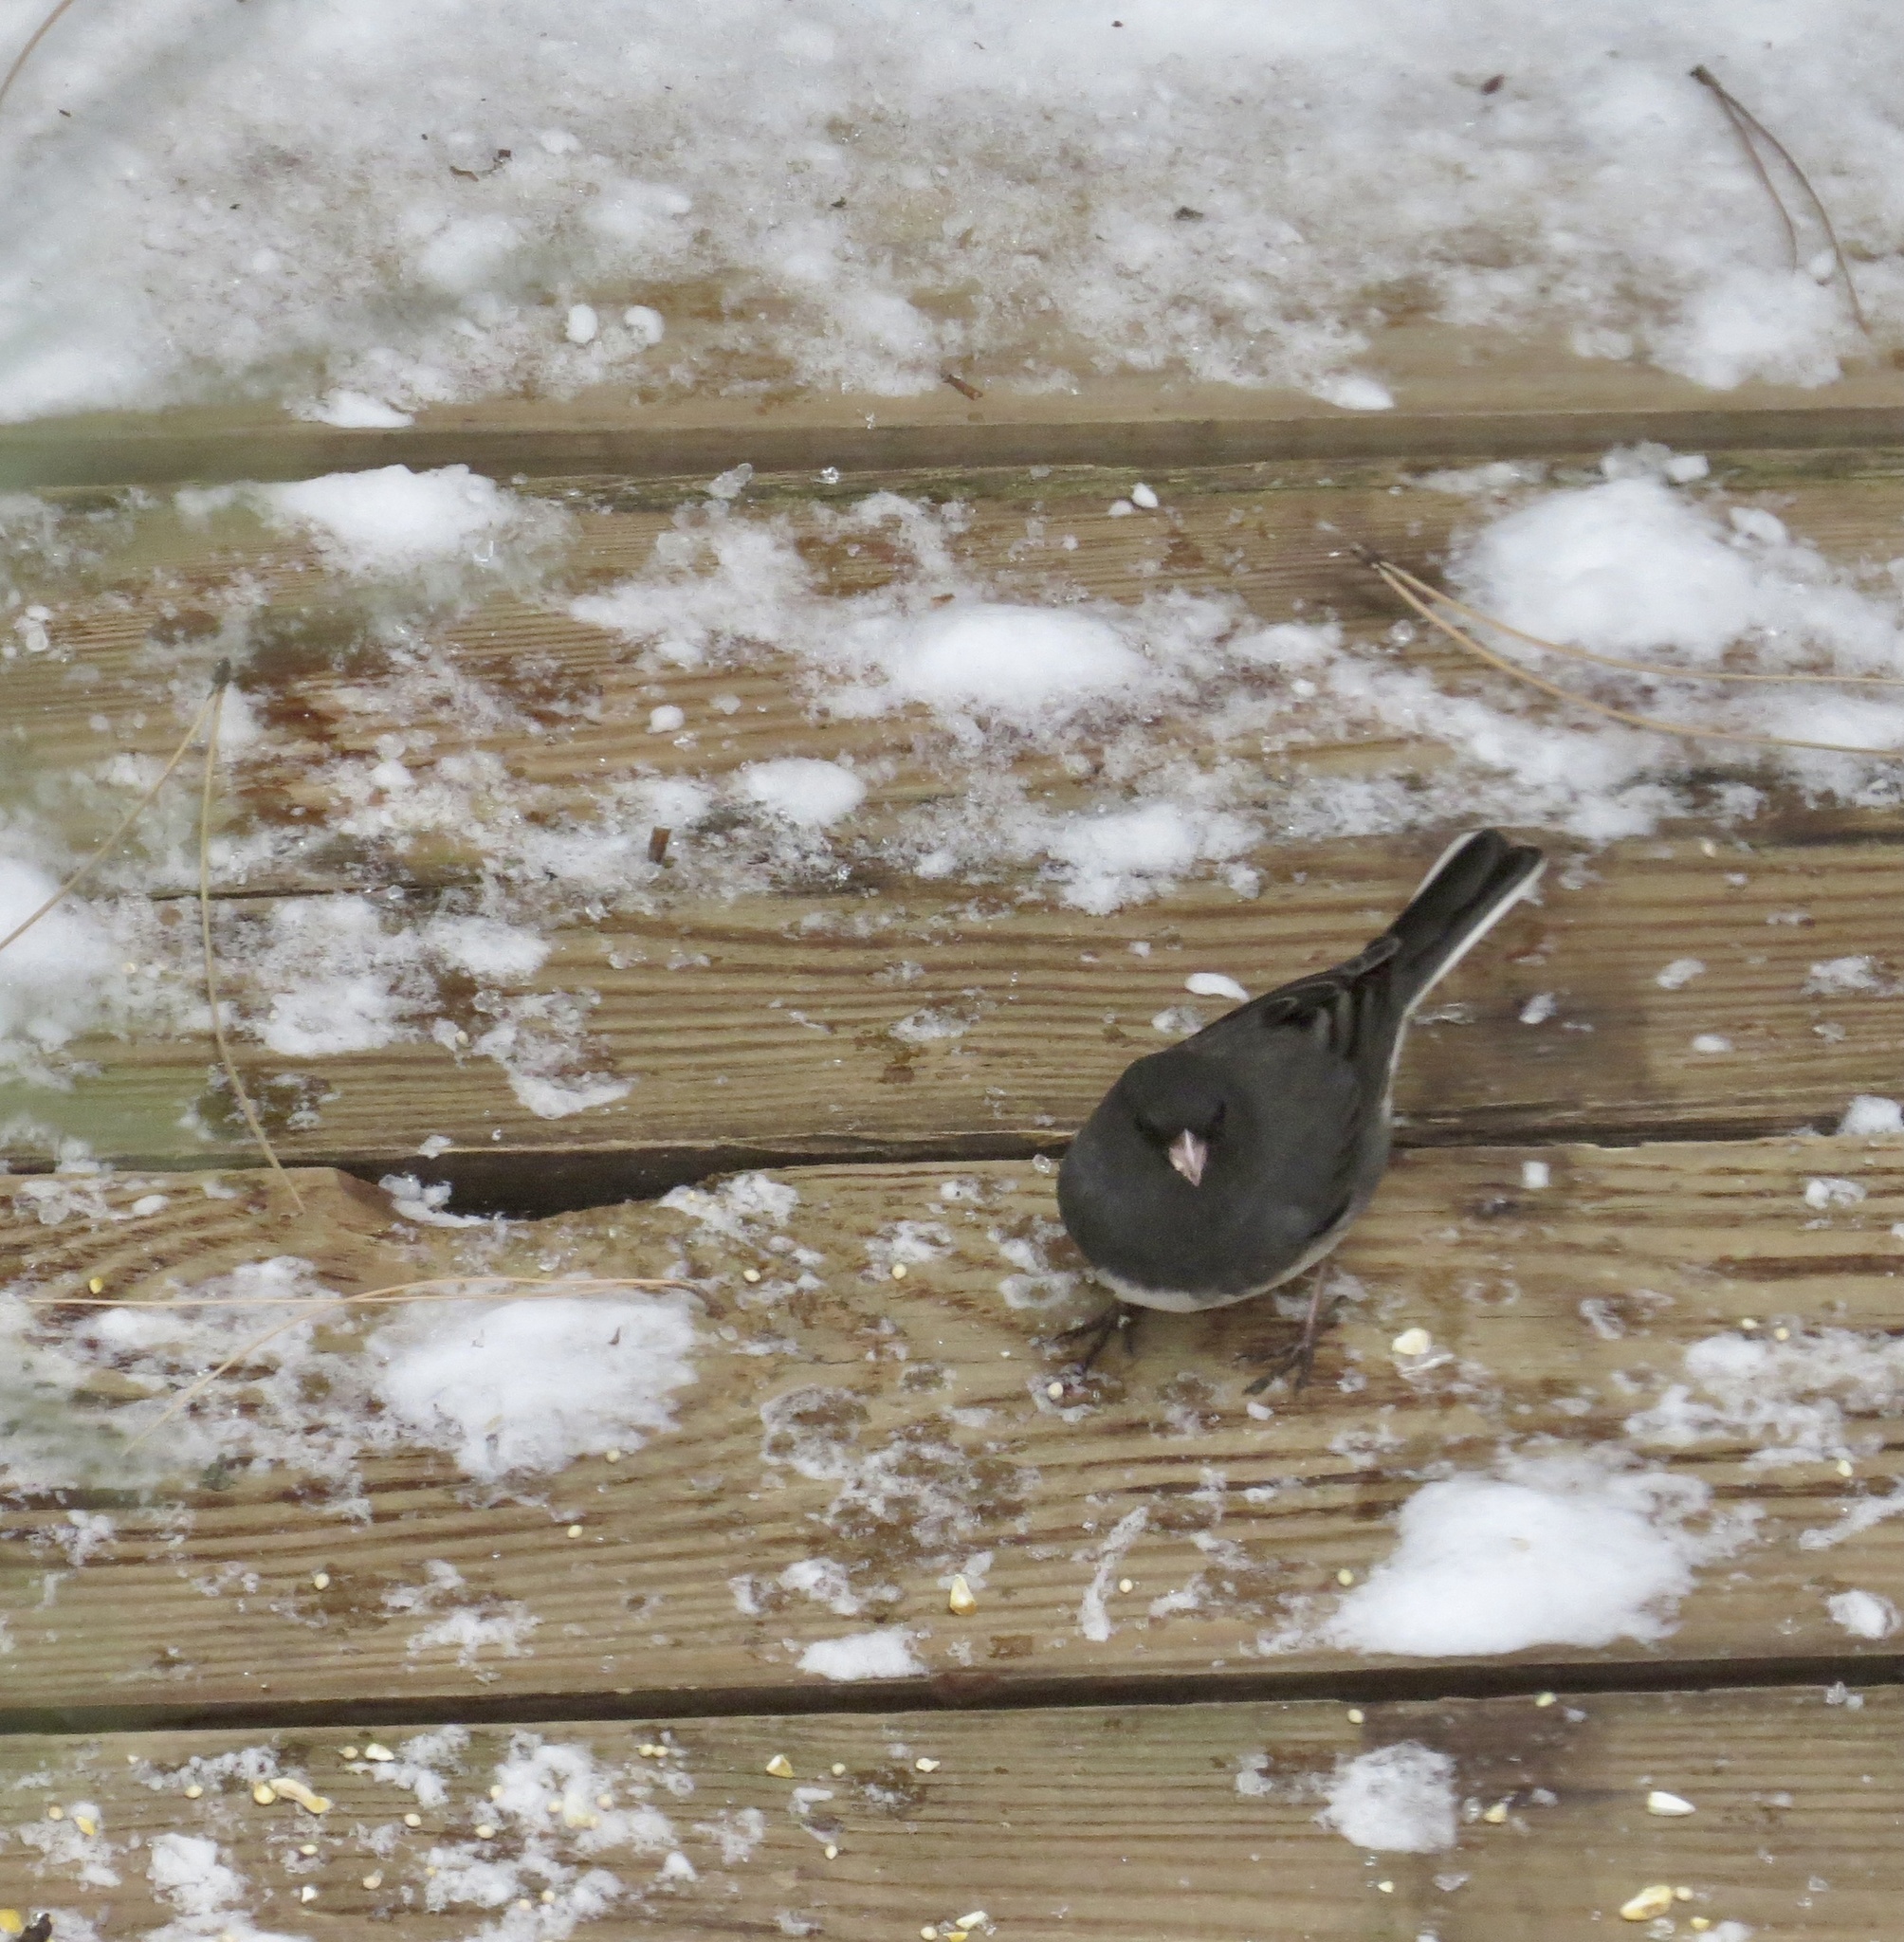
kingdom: Animalia
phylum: Chordata
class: Aves
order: Passeriformes
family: Passerellidae
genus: Junco
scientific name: Junco hyemalis
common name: Dark-eyed junco
